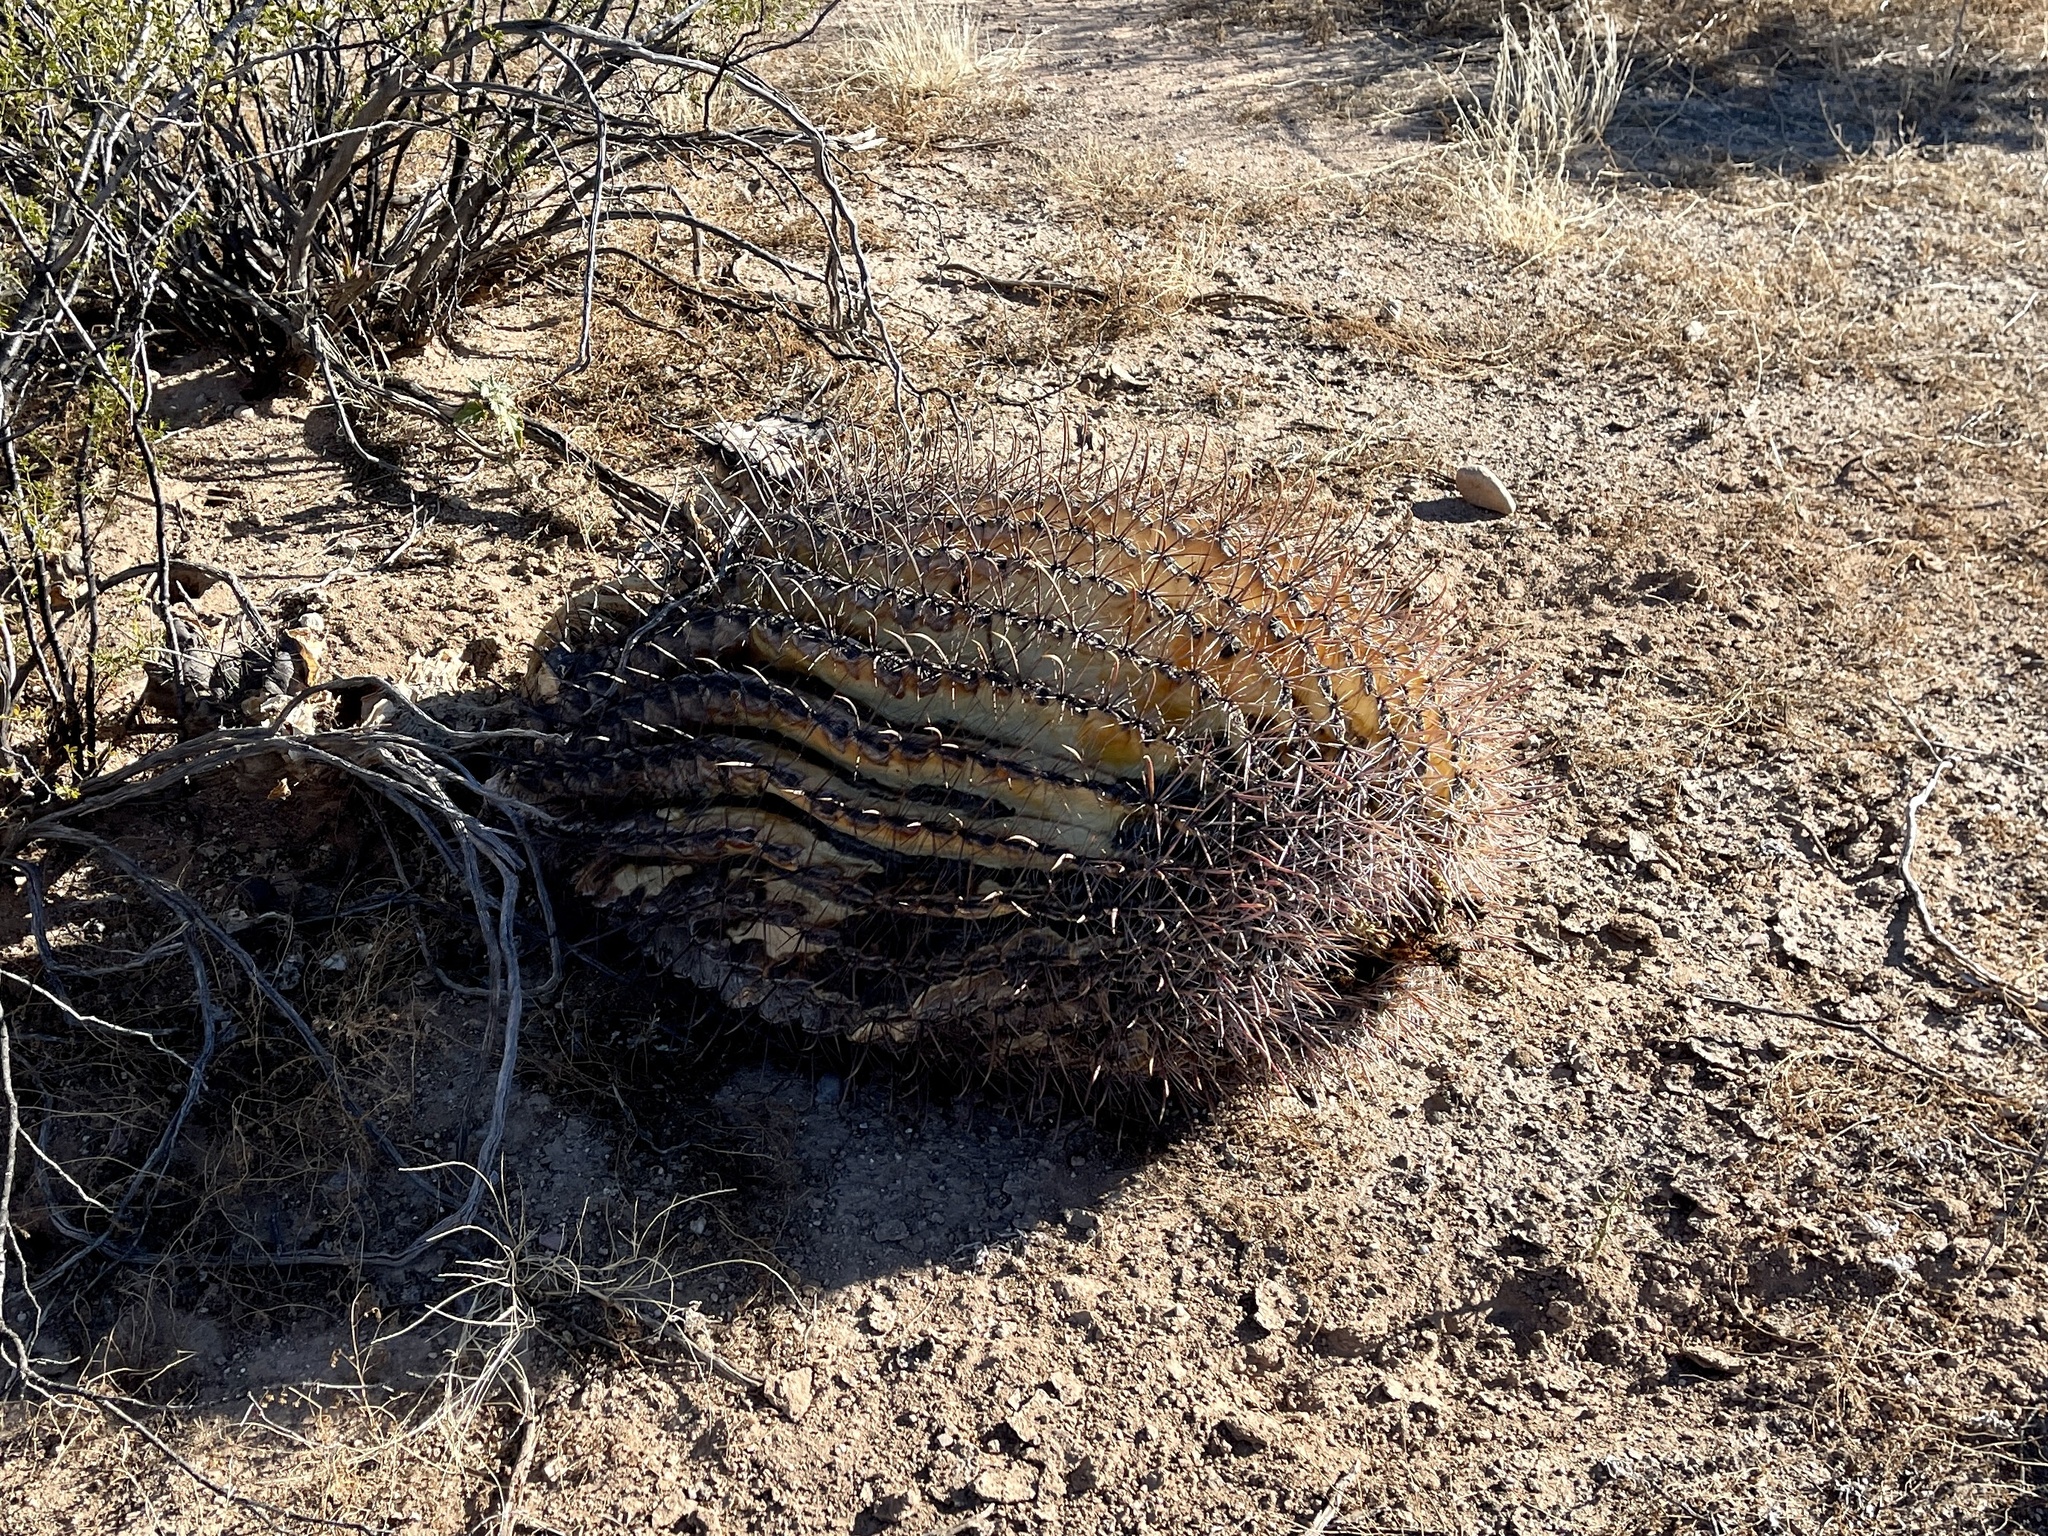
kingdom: Plantae
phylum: Tracheophyta
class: Magnoliopsida
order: Caryophyllales
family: Cactaceae
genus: Ferocactus
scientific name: Ferocactus wislizeni
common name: Candy barrel cactus
